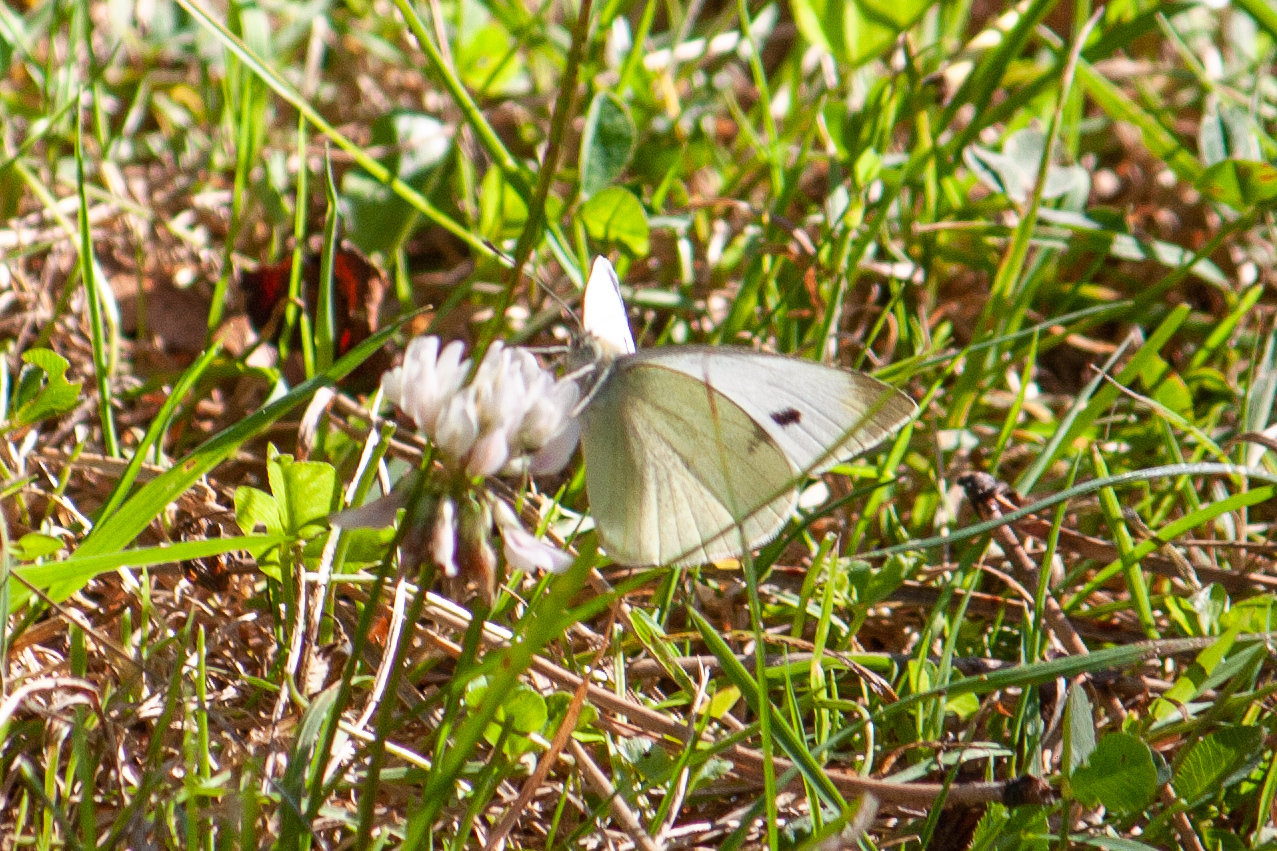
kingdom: Animalia
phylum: Arthropoda
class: Insecta
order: Lepidoptera
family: Pieridae
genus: Pieris
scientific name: Pieris rapae
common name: Small white
